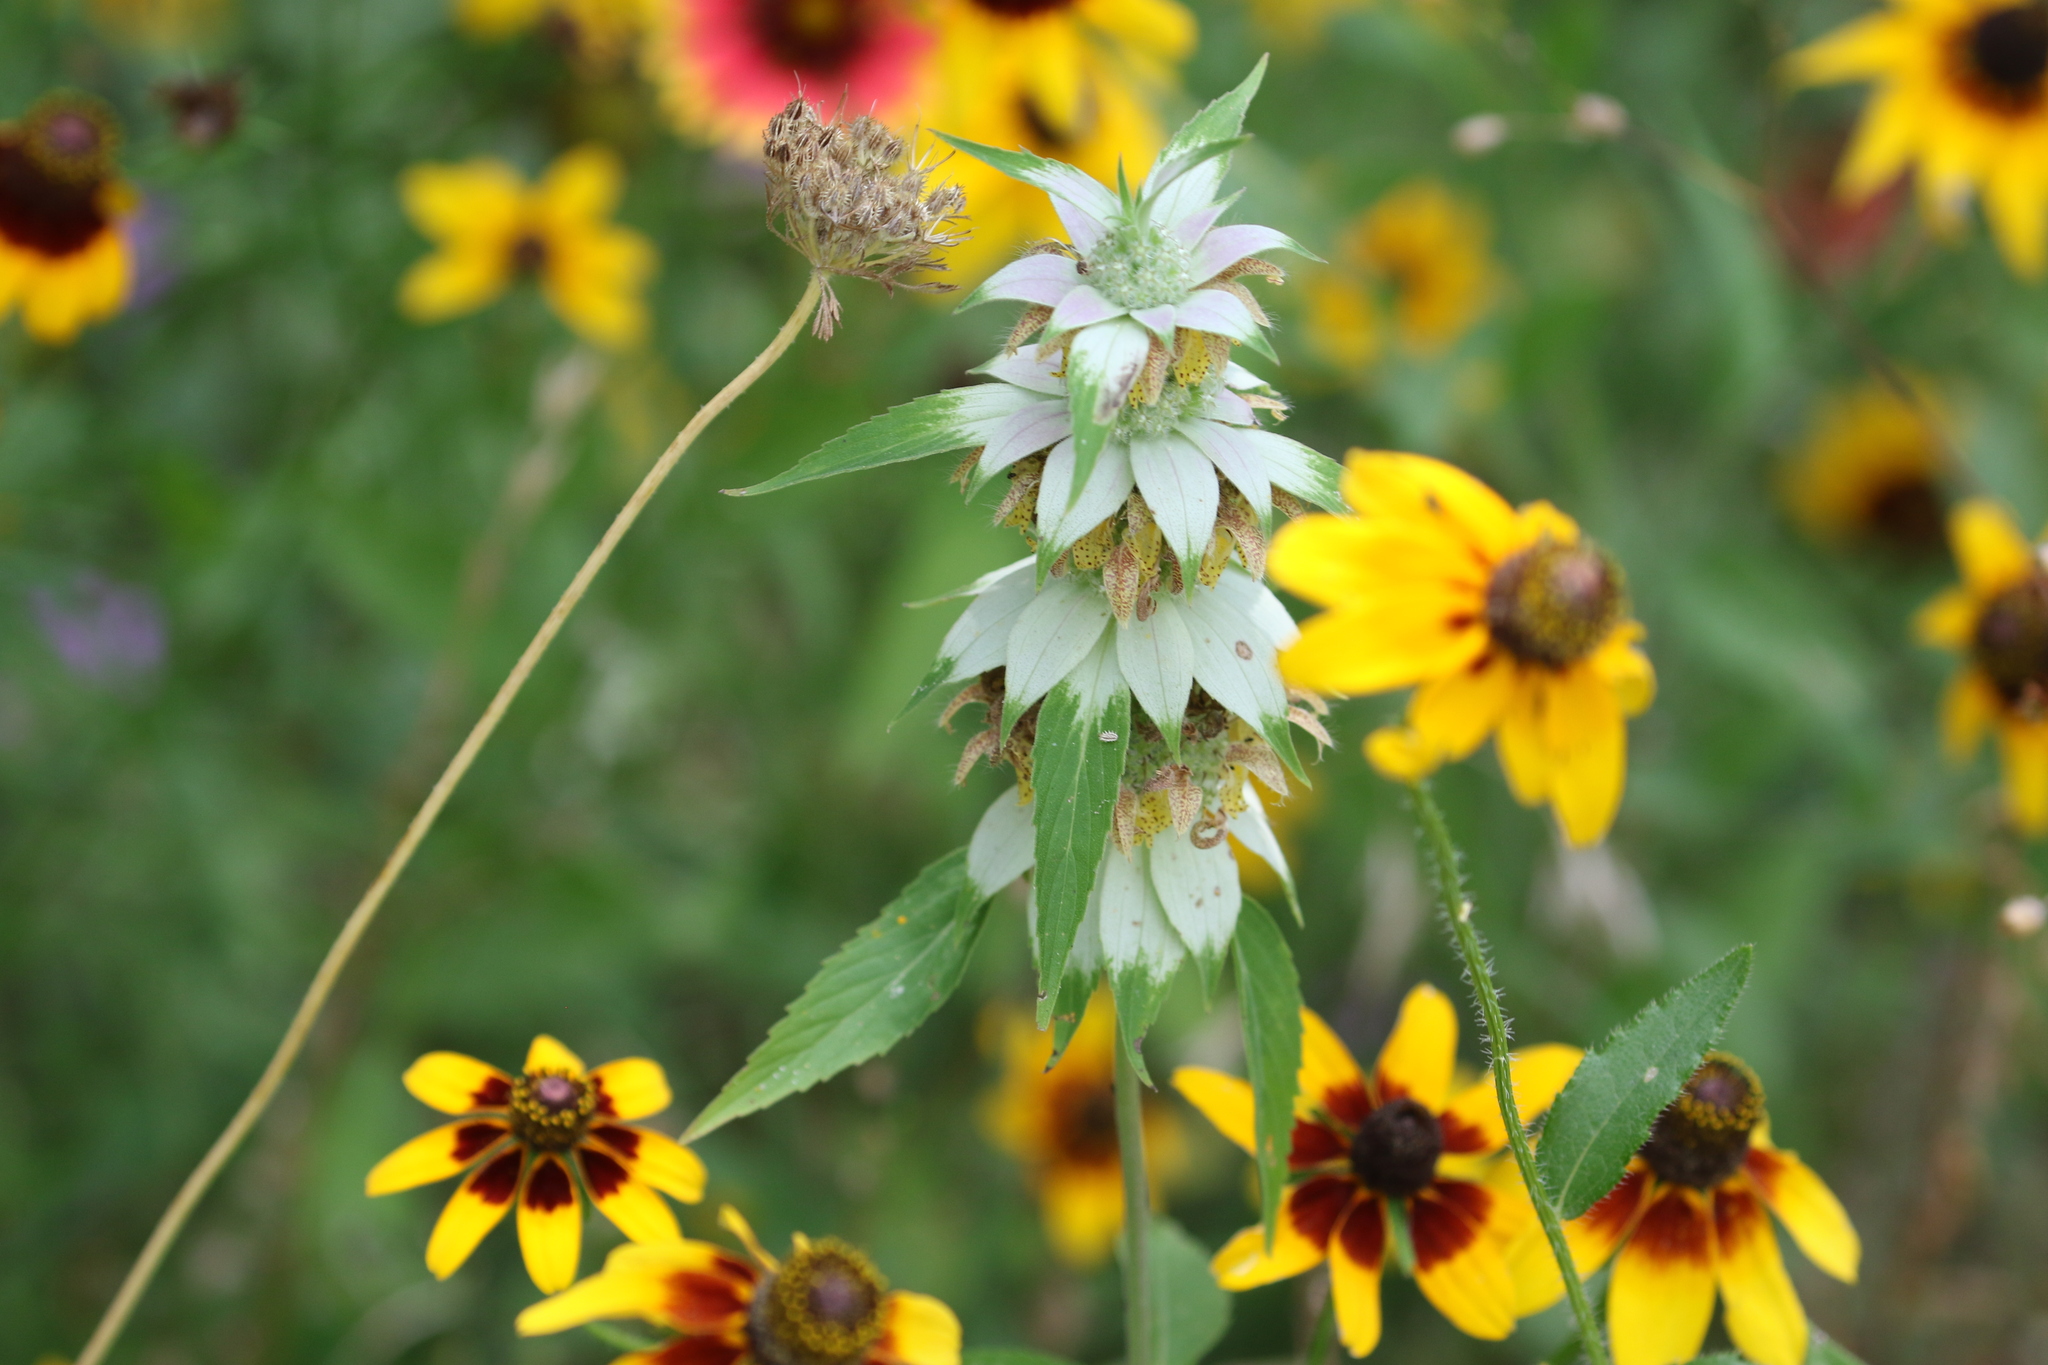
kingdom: Plantae
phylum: Tracheophyta
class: Magnoliopsida
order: Lamiales
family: Lamiaceae
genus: Monarda
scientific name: Monarda punctata
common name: Dotted monarda
